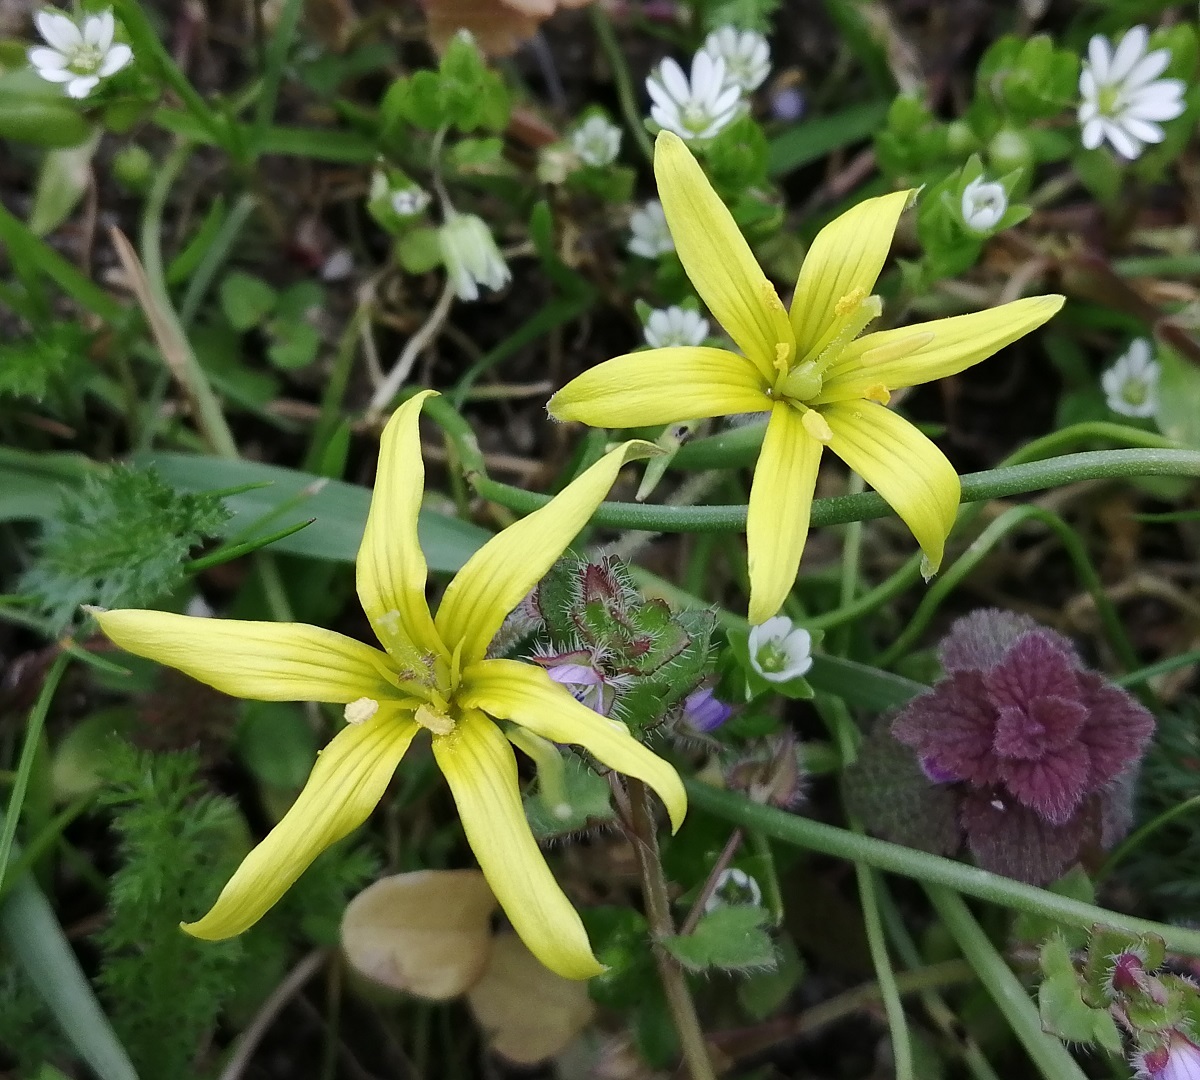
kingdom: Plantae
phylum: Tracheophyta
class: Liliopsida
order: Liliales
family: Liliaceae
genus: Gagea
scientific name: Gagea villosa
